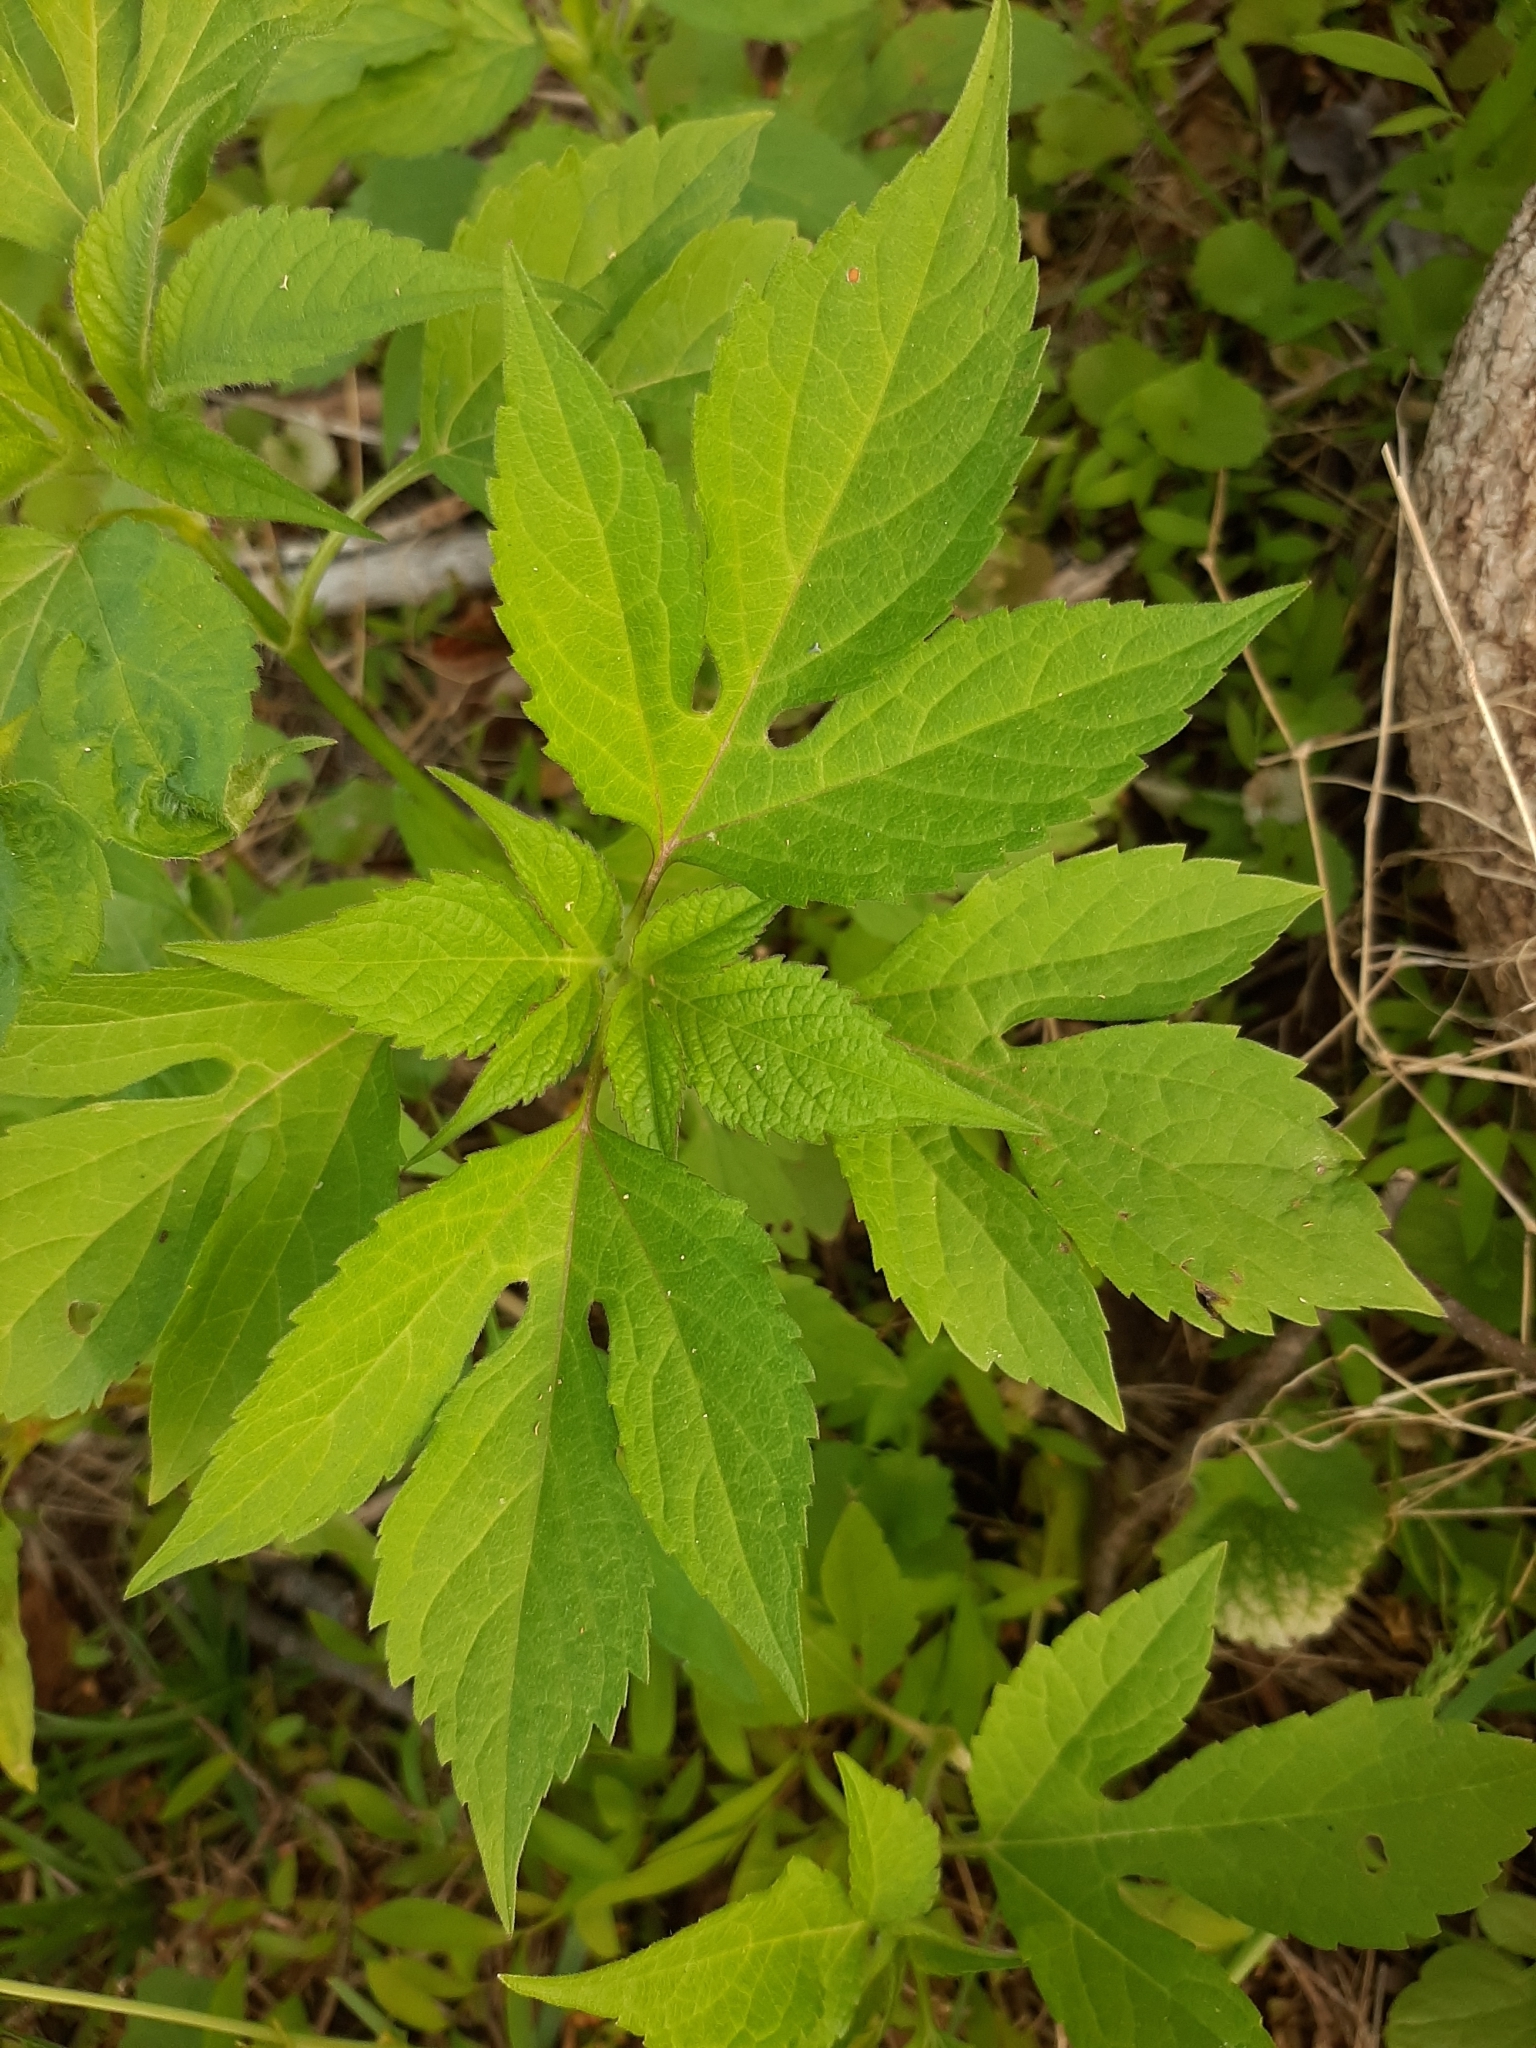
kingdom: Plantae
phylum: Tracheophyta
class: Magnoliopsida
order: Asterales
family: Asteraceae
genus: Ambrosia
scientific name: Ambrosia trifida
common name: Giant ragweed
